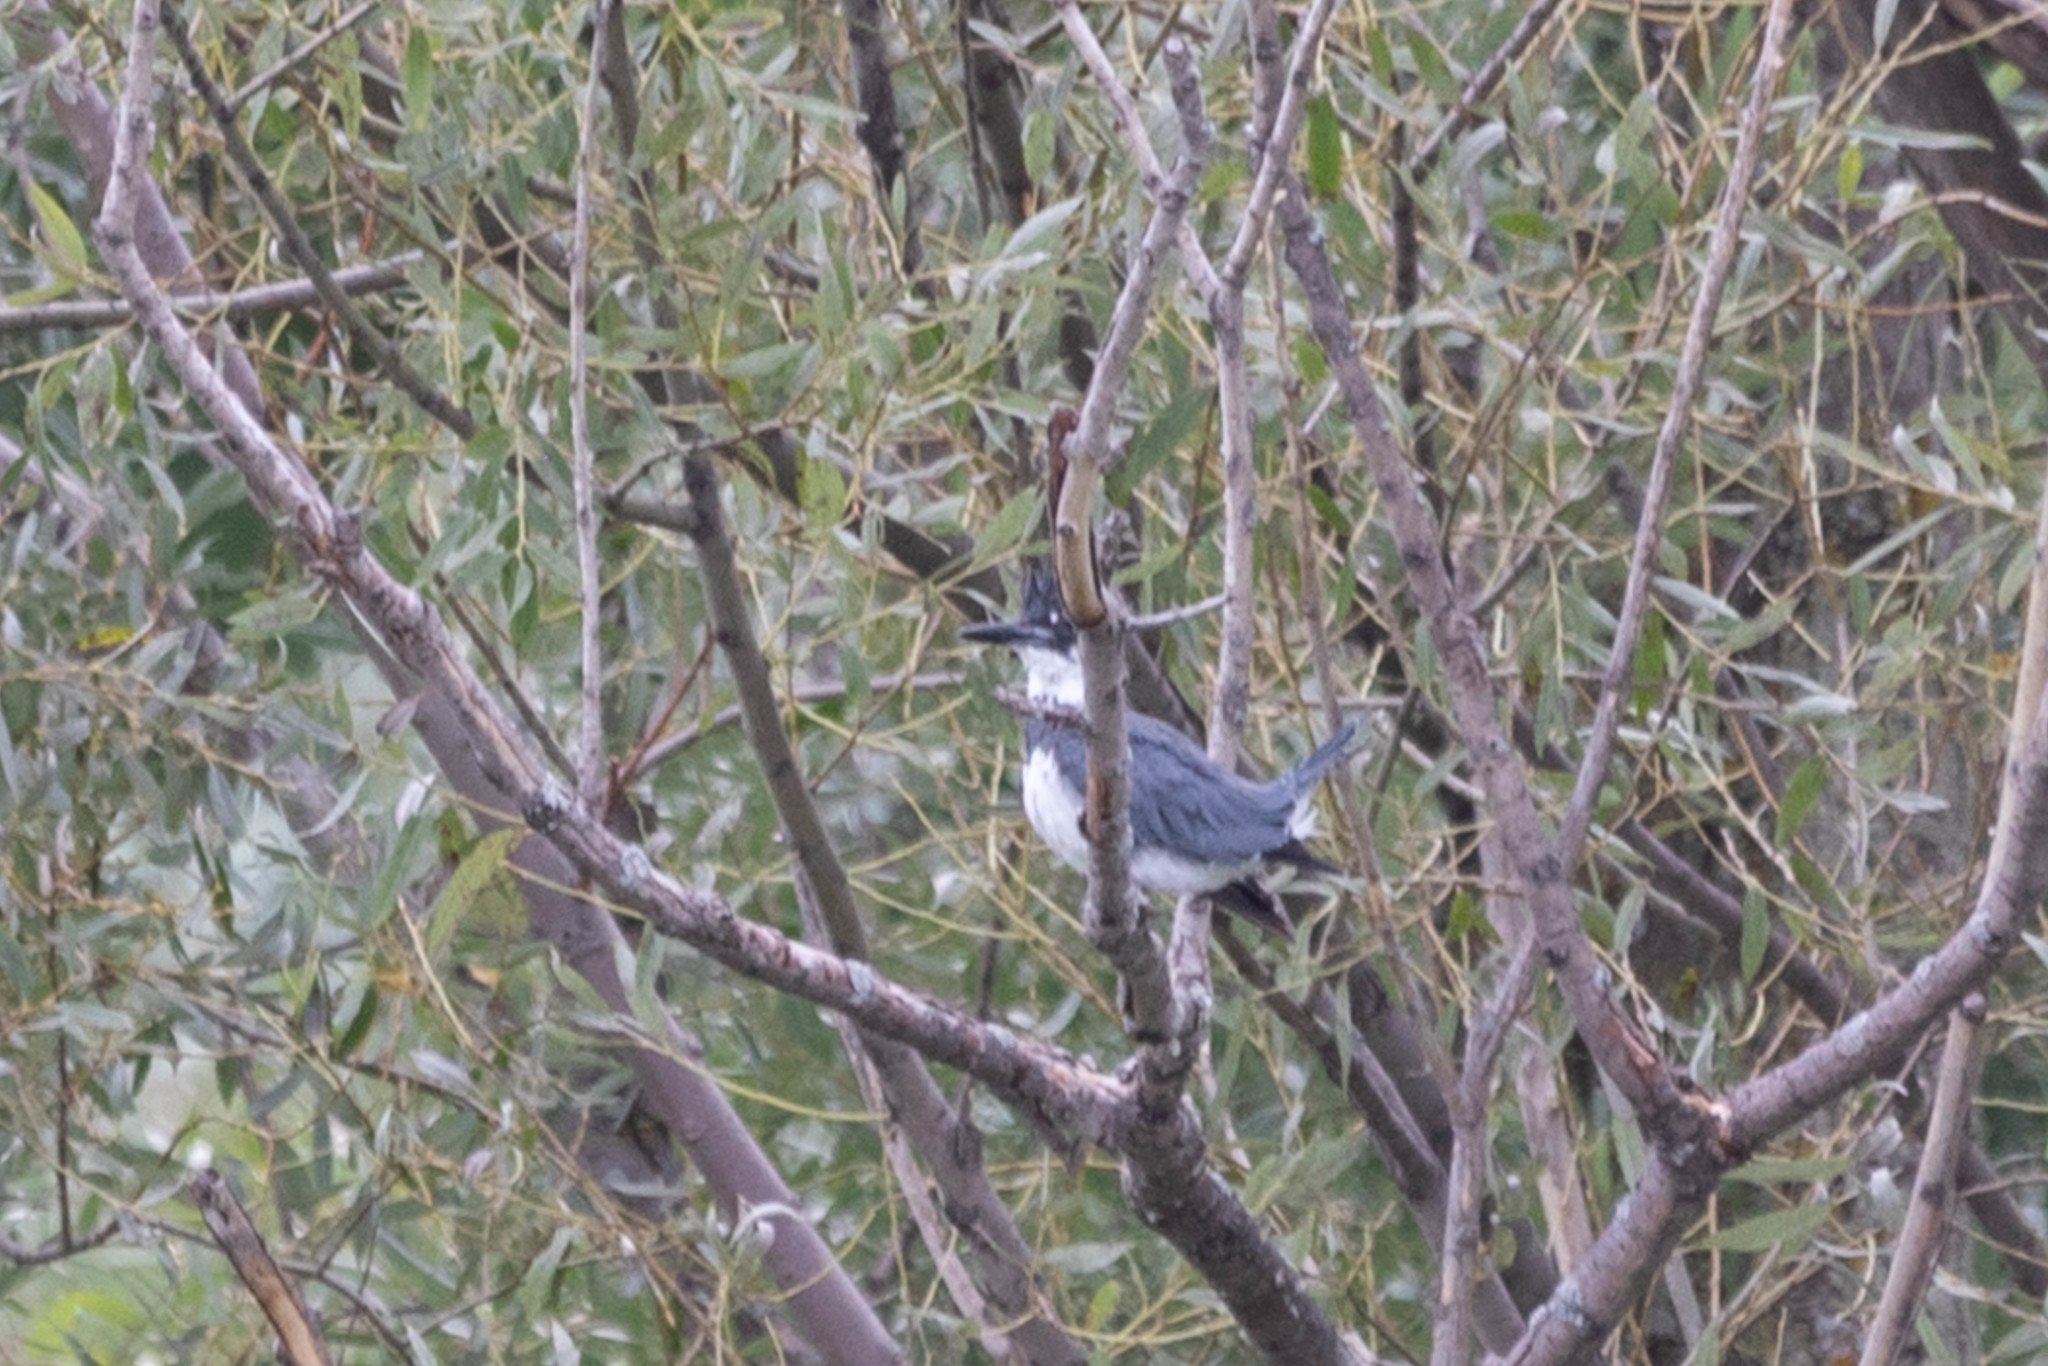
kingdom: Animalia
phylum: Chordata
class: Aves
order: Coraciiformes
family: Alcedinidae
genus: Megaceryle
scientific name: Megaceryle alcyon
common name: Belted kingfisher
